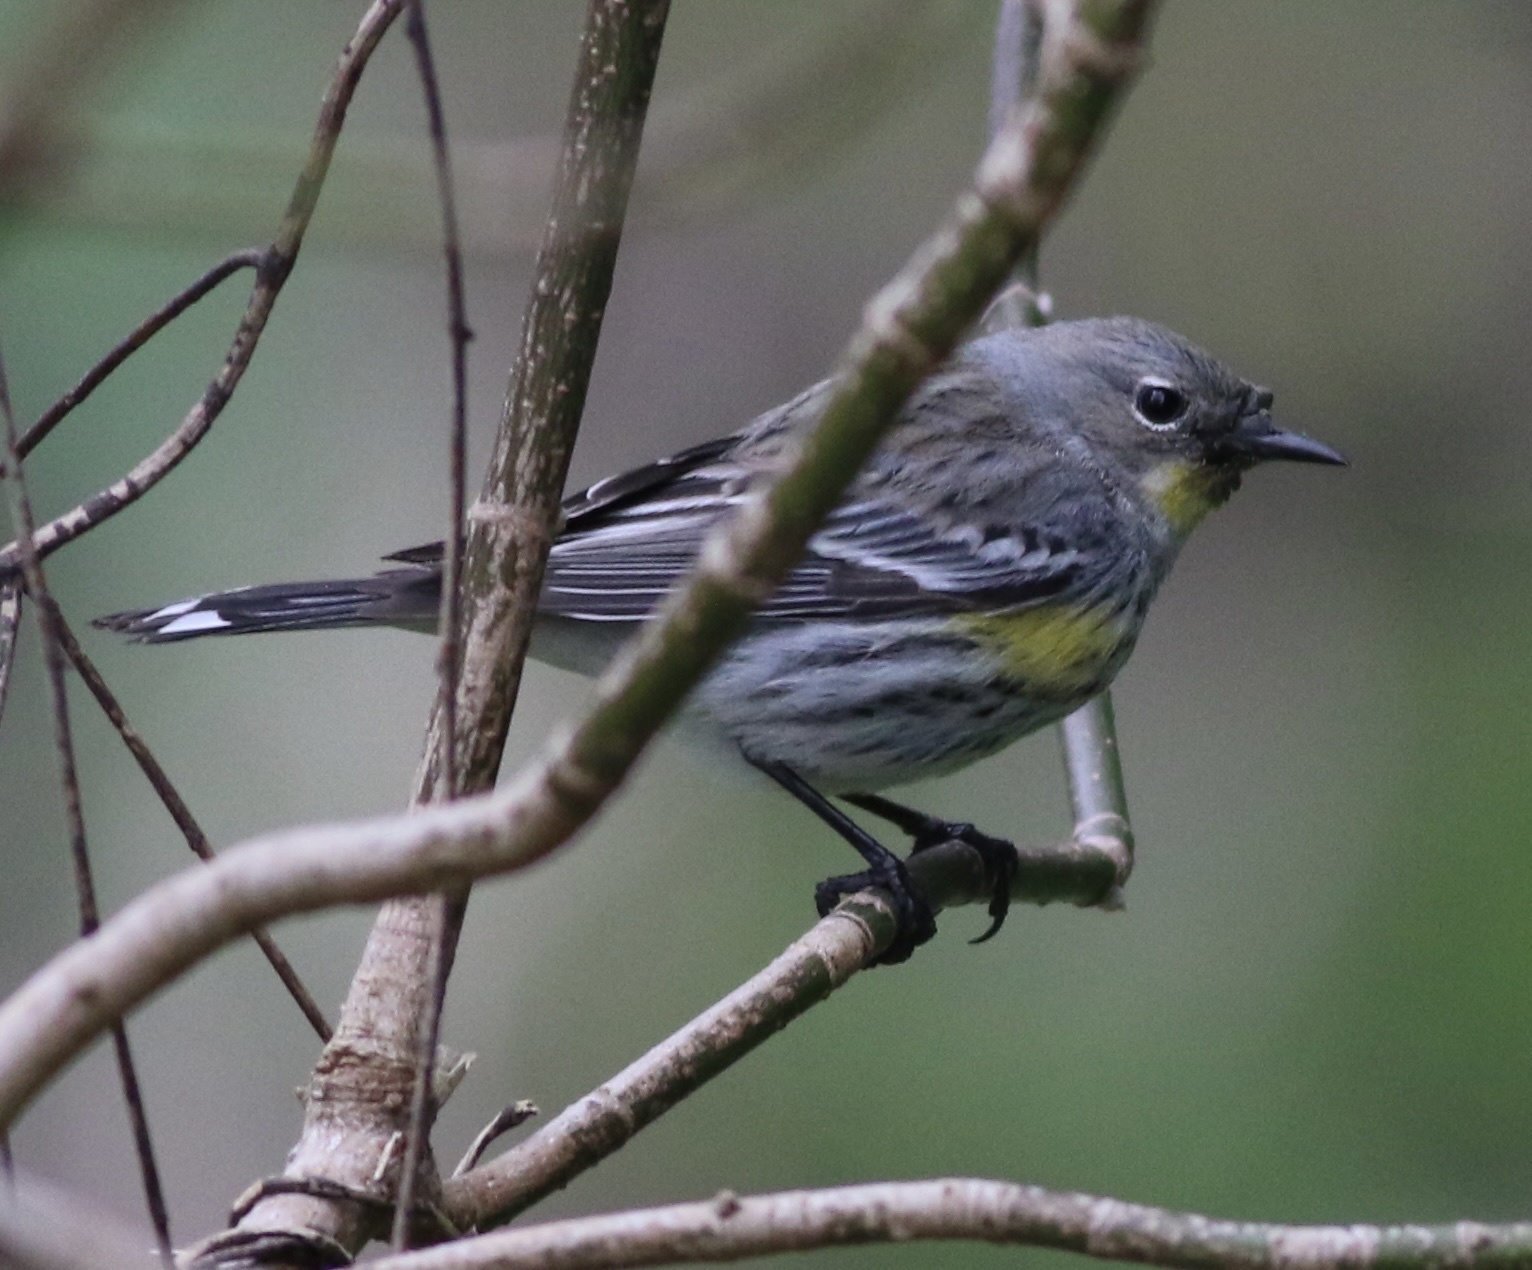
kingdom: Animalia
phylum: Chordata
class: Aves
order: Passeriformes
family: Parulidae
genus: Setophaga
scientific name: Setophaga coronata
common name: Myrtle warbler
